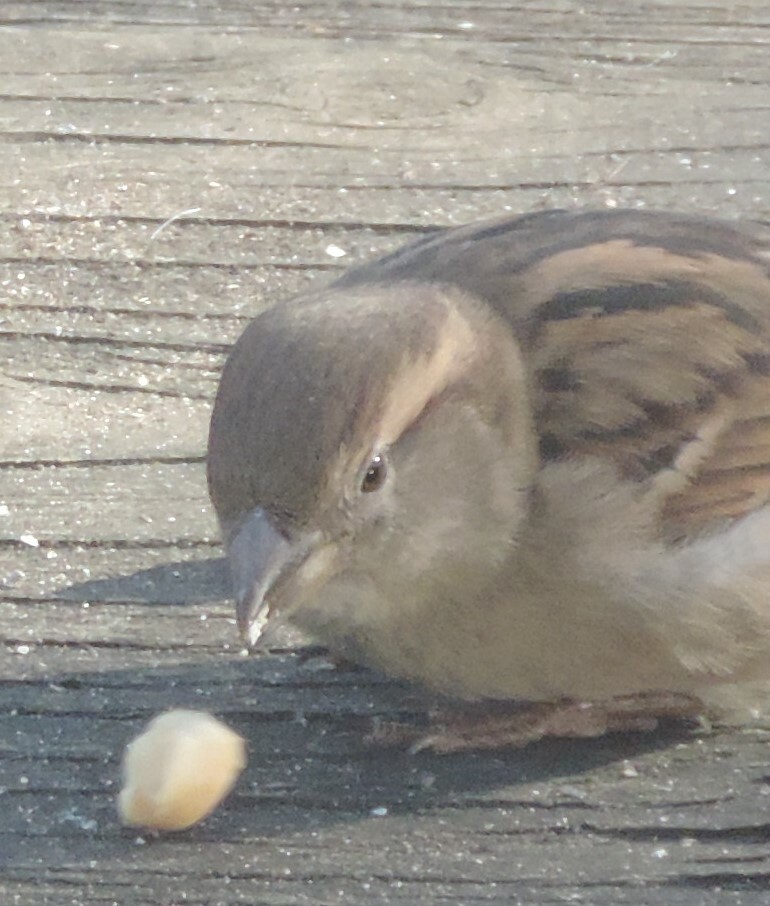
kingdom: Animalia
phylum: Chordata
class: Aves
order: Passeriformes
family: Passeridae
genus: Passer
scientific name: Passer domesticus
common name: House sparrow
